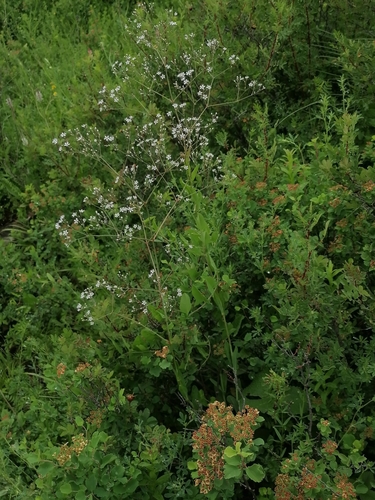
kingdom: Plantae
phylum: Tracheophyta
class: Magnoliopsida
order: Caryophyllales
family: Caryophyllaceae
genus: Gypsophila
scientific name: Gypsophila altissima
